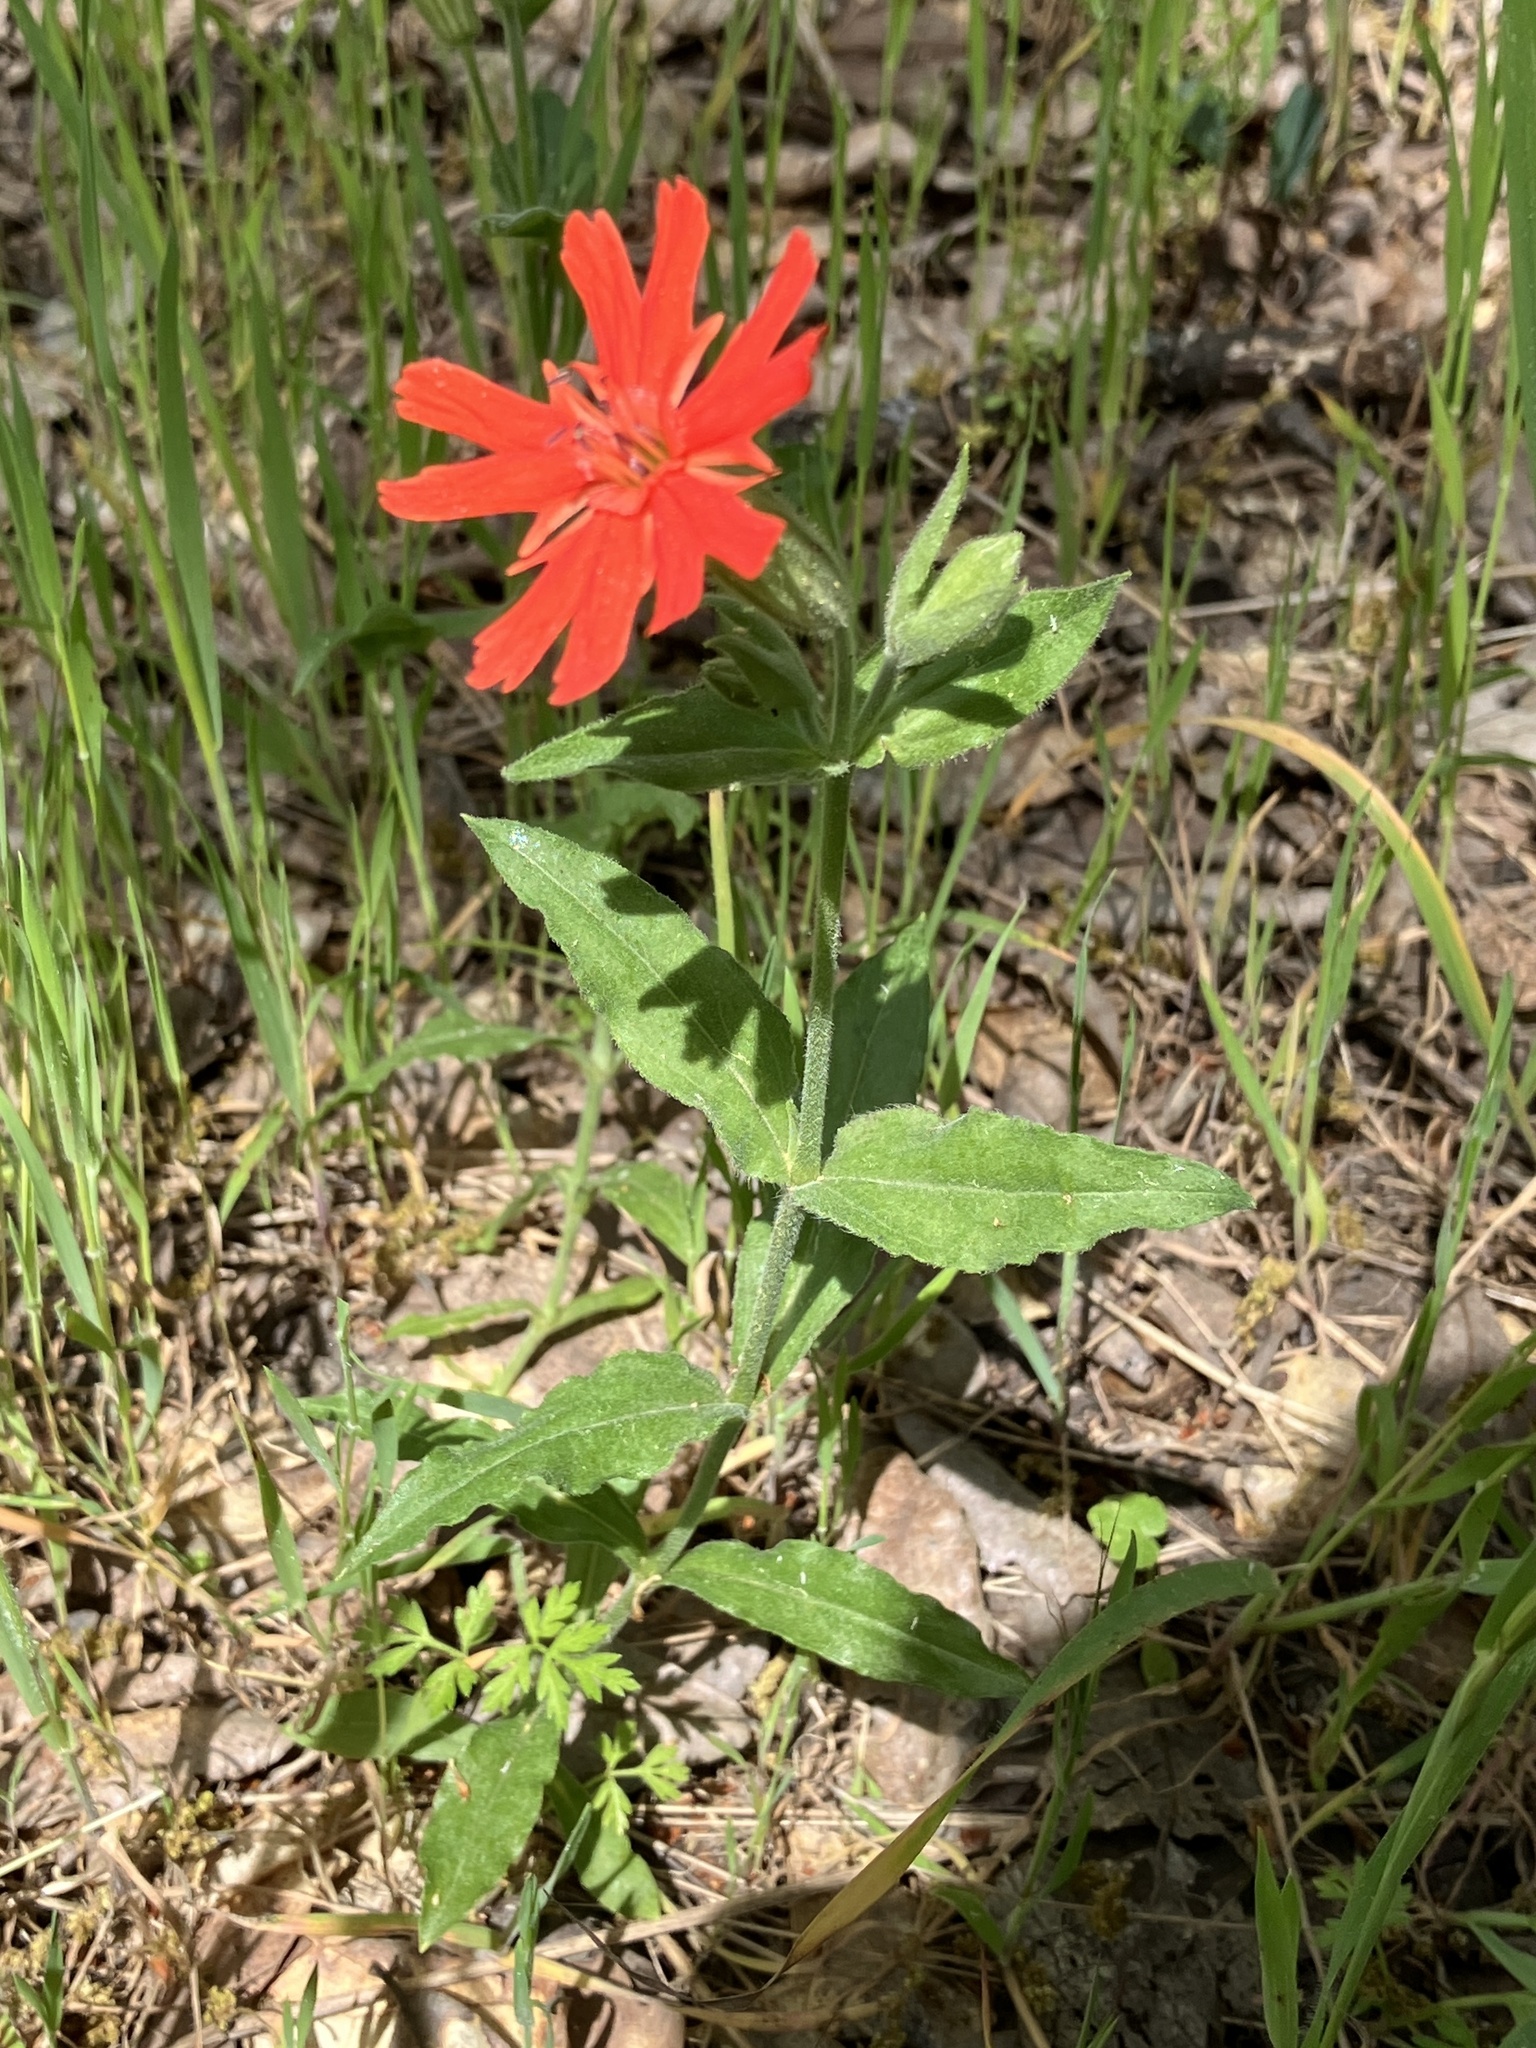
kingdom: Plantae
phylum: Tracheophyta
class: Magnoliopsida
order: Caryophyllales
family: Caryophyllaceae
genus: Silene
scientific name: Silene laciniata
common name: Indian-pink
